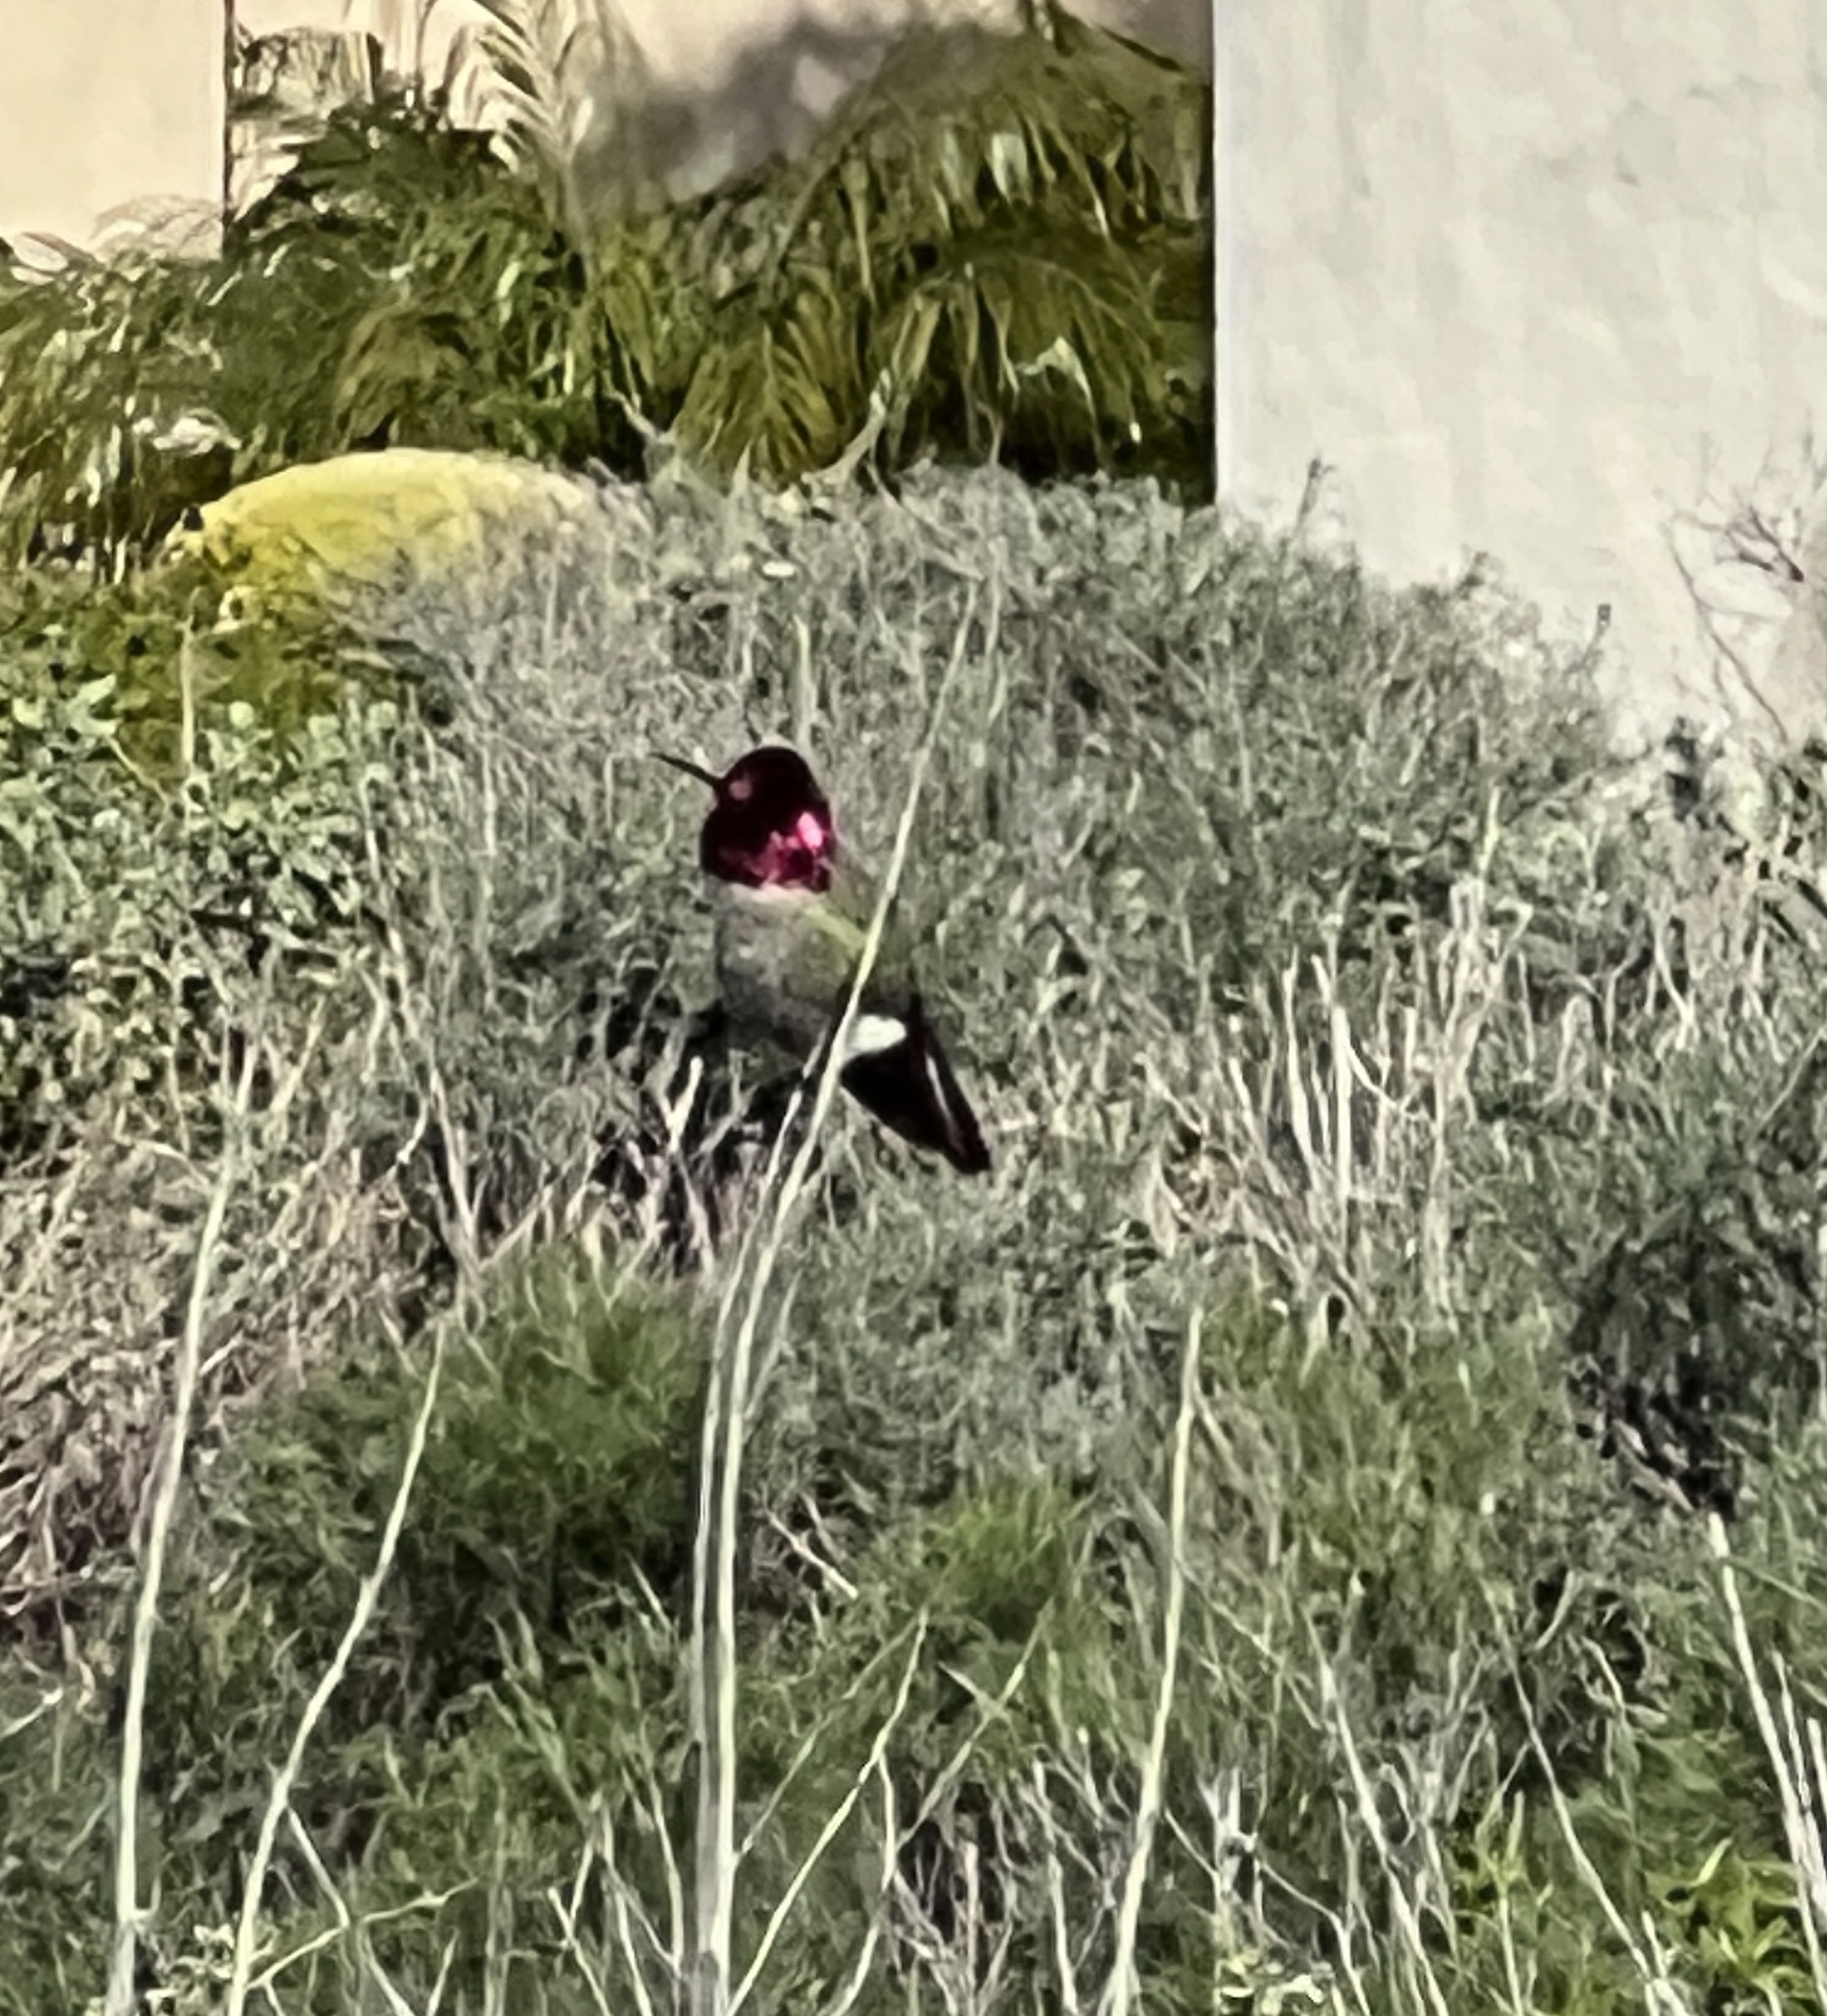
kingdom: Animalia
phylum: Chordata
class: Aves
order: Apodiformes
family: Trochilidae
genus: Calypte
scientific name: Calypte anna
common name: Anna's hummingbird
